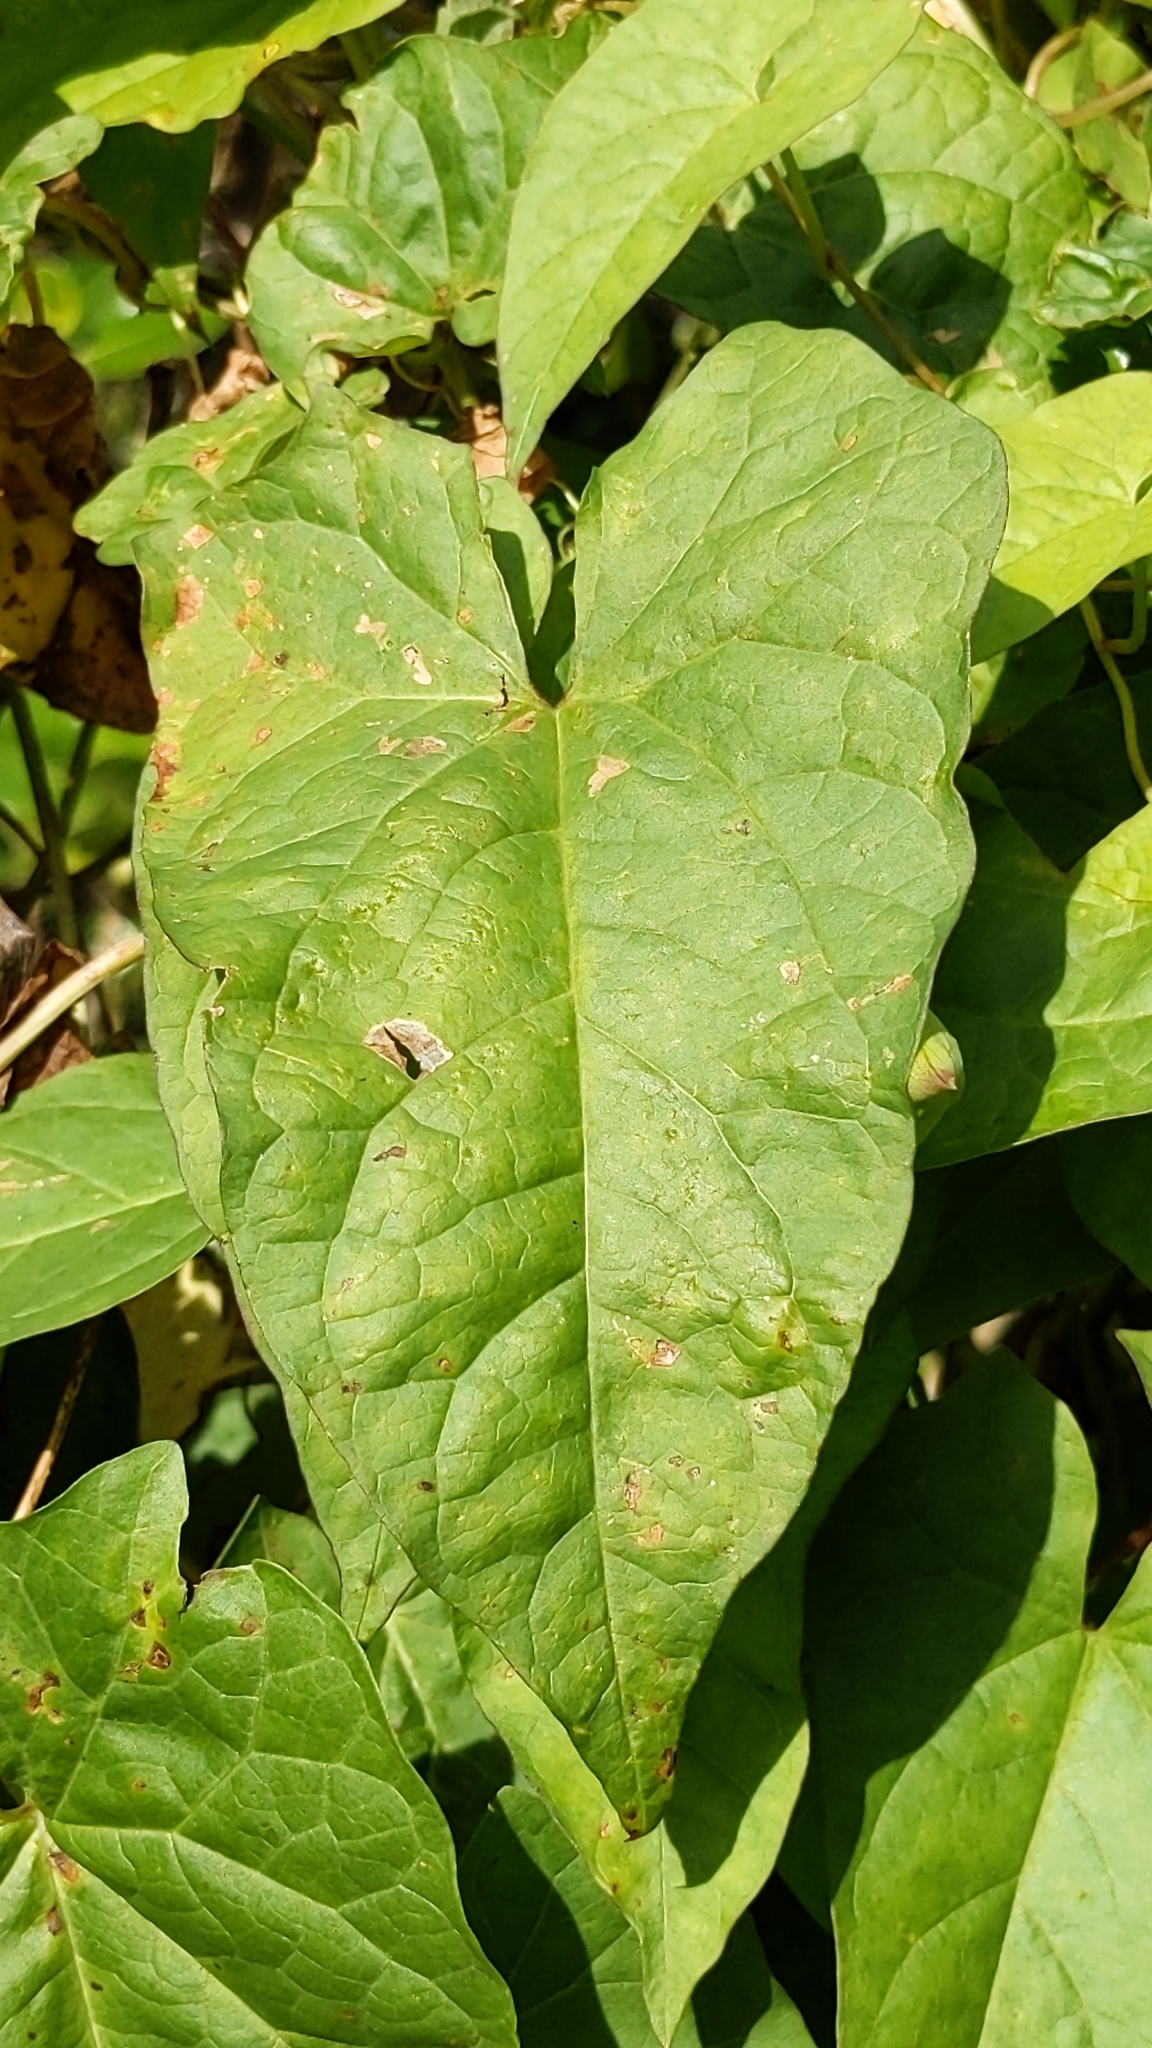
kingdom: Plantae
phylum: Tracheophyta
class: Magnoliopsida
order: Solanales
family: Convolvulaceae
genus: Calystegia
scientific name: Calystegia silvatica
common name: Large bindweed
